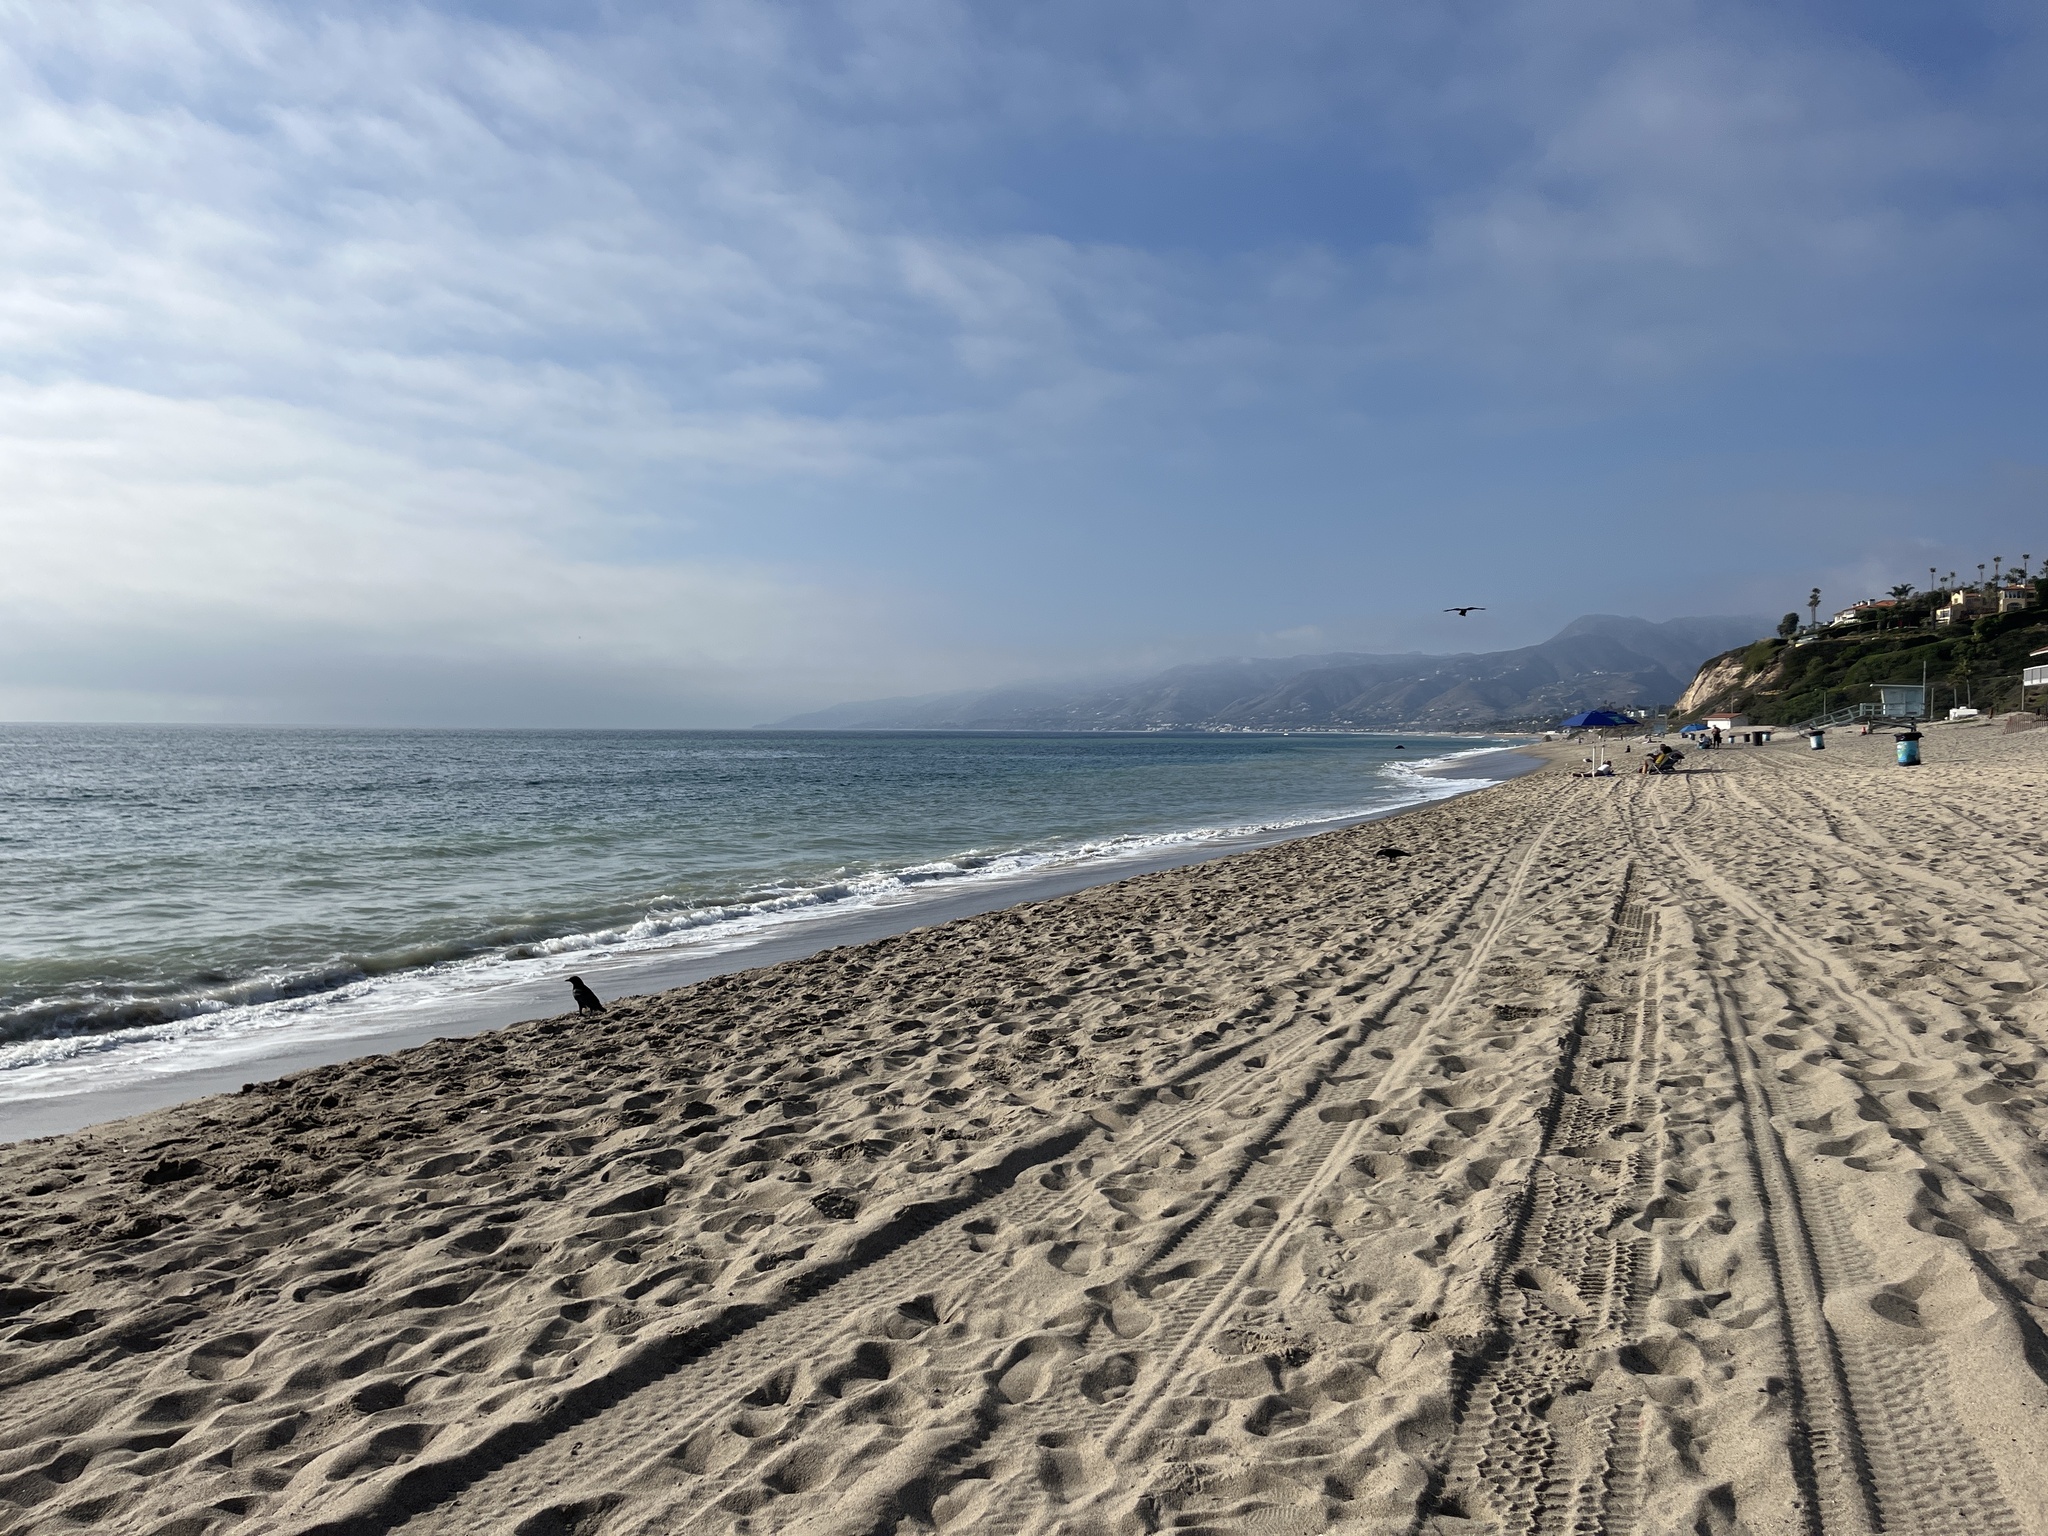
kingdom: Animalia
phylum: Chordata
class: Aves
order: Passeriformes
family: Corvidae
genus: Corvus
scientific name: Corvus brachyrhynchos
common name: American crow
